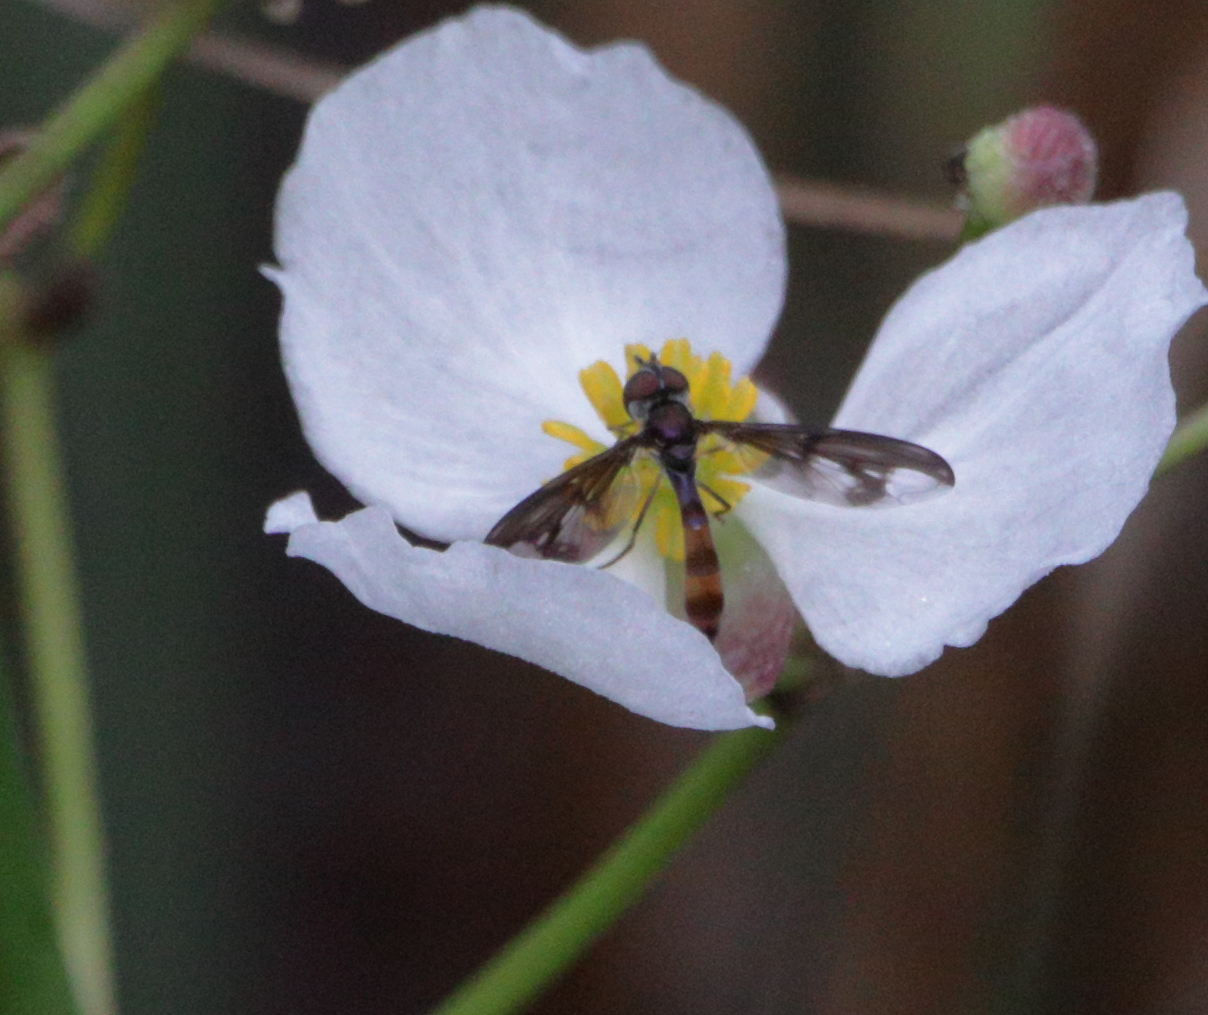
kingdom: Animalia
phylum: Arthropoda
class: Insecta
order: Diptera
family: Syrphidae
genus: Ocyptamus
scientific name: Ocyptamus fuscipennis
